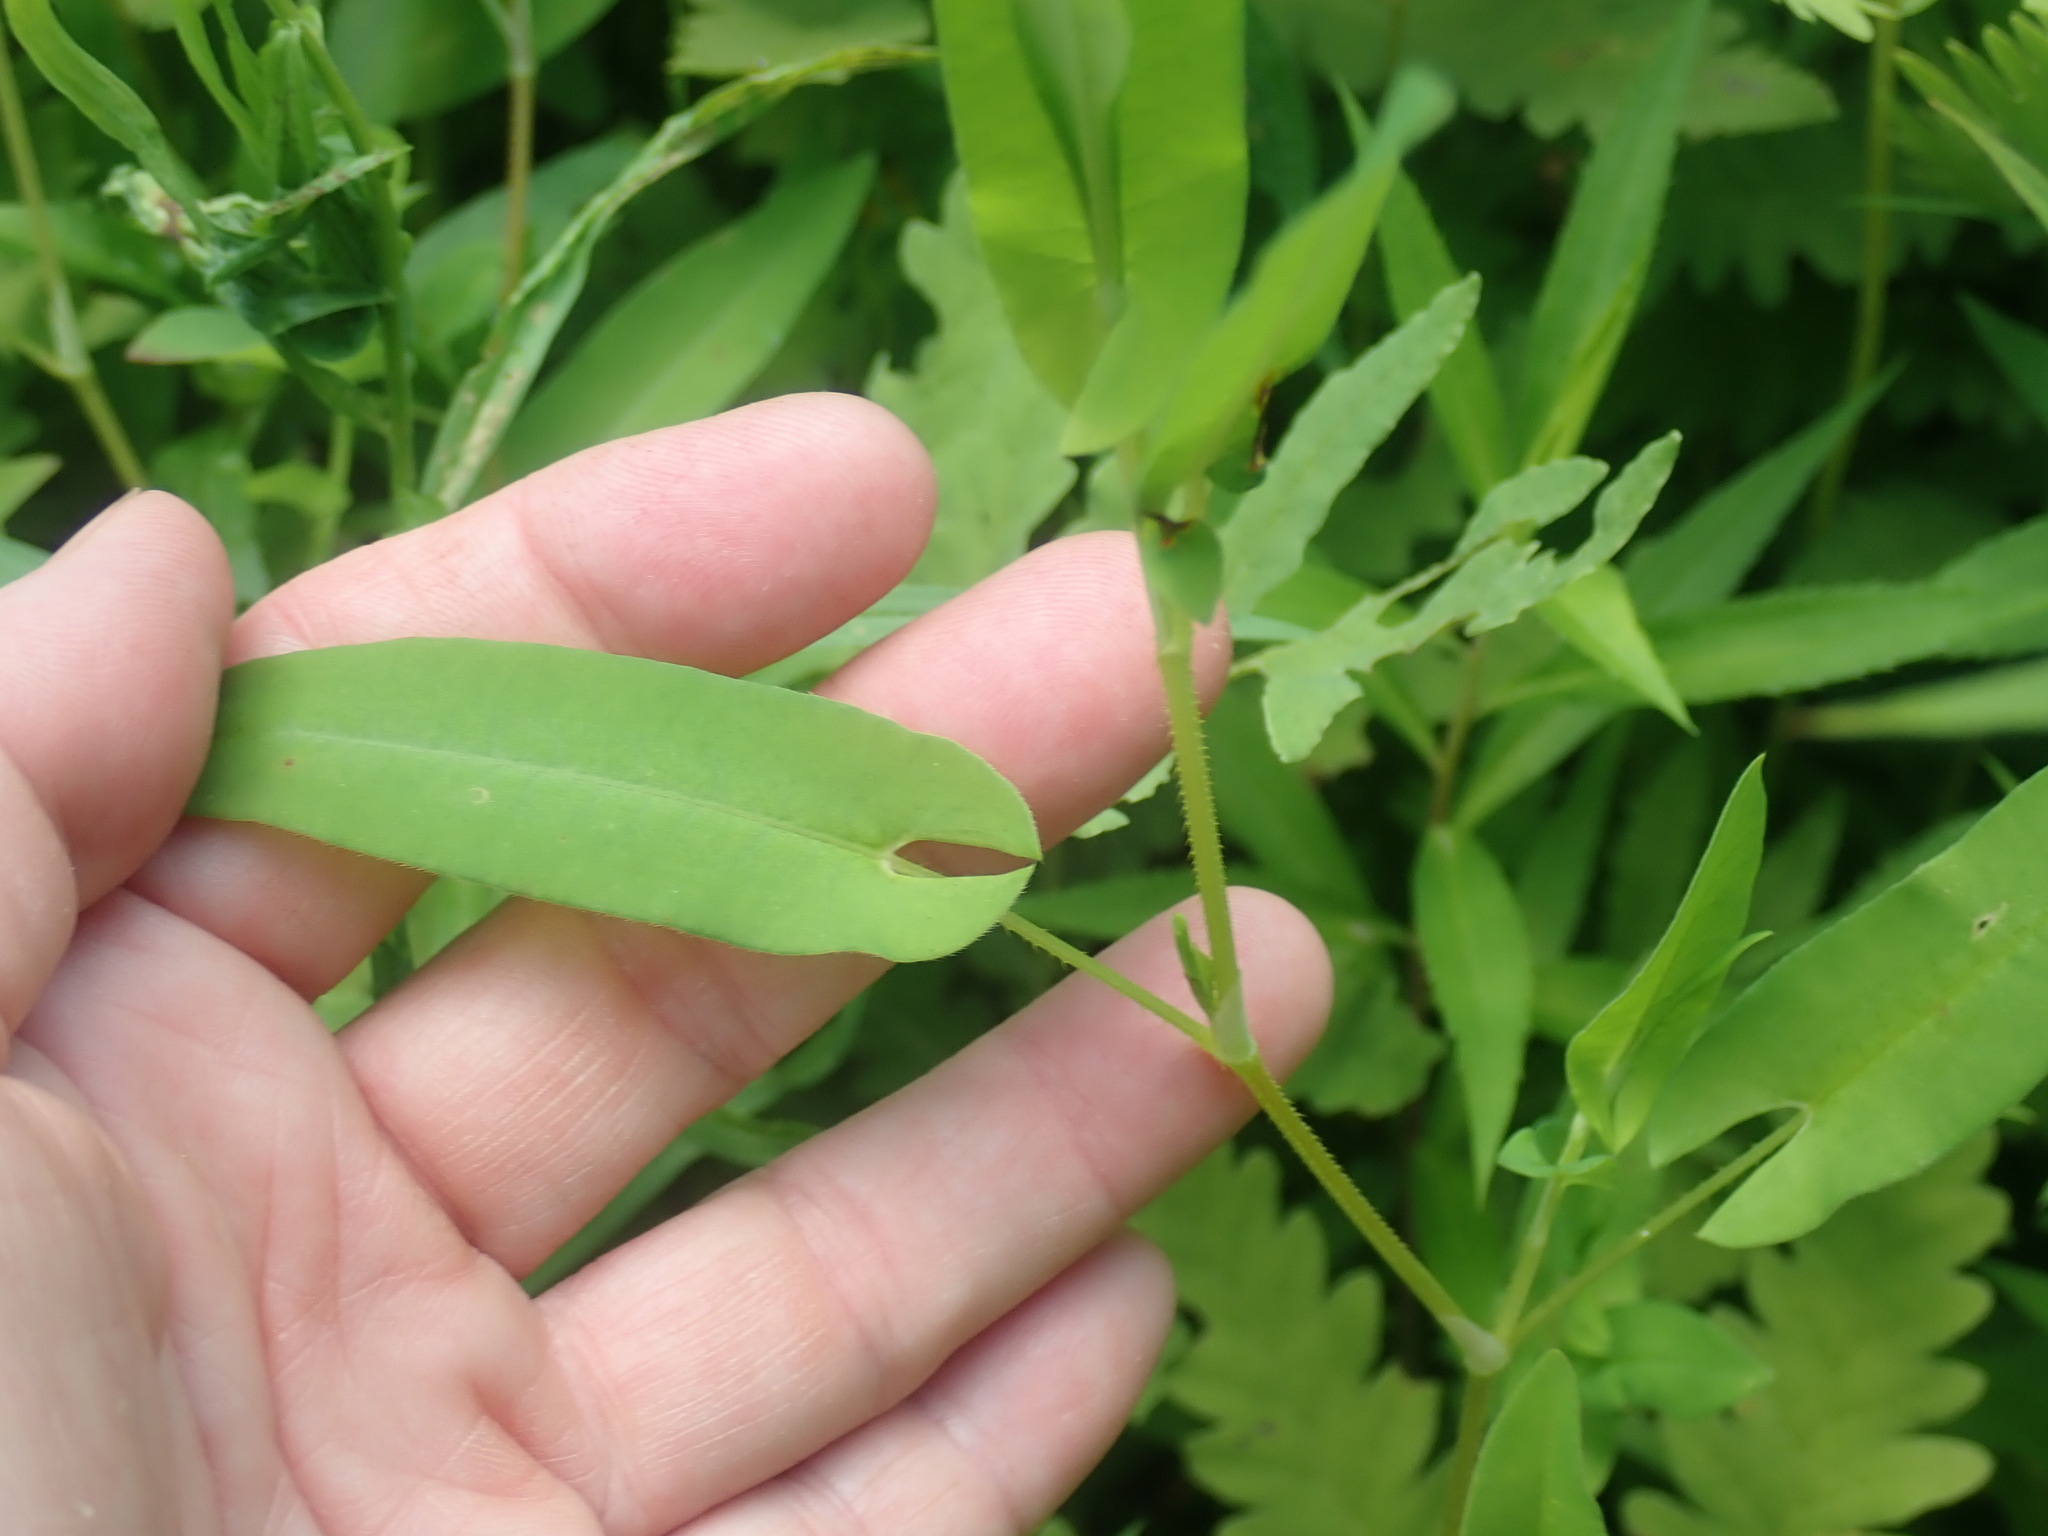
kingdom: Plantae
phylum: Tracheophyta
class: Magnoliopsida
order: Caryophyllales
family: Polygonaceae
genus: Persicaria
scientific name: Persicaria sagittata
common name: American tearthumb
